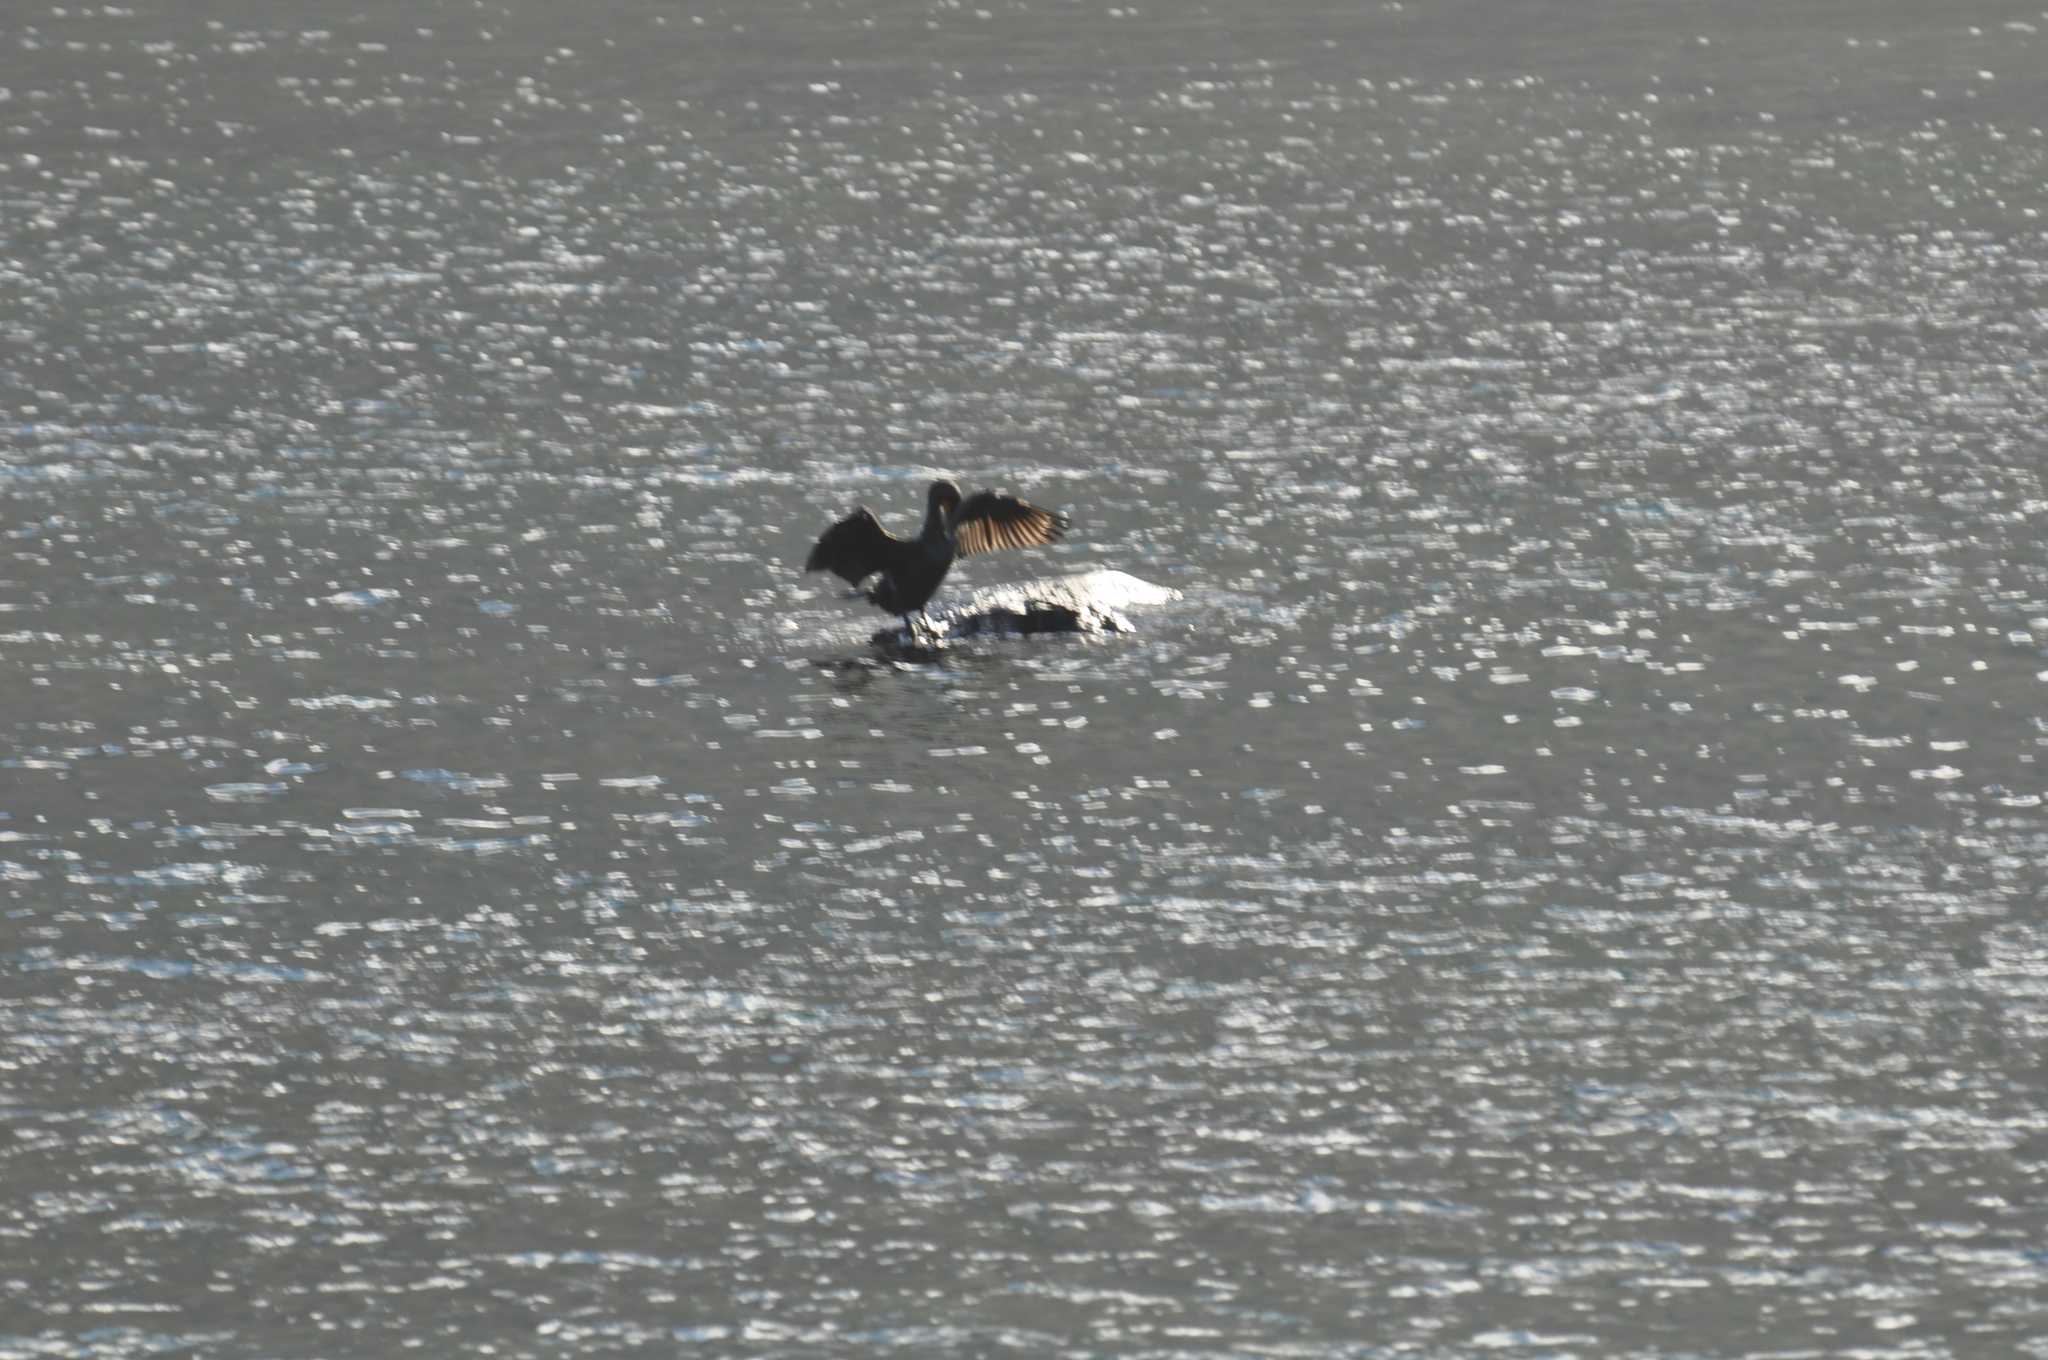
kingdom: Animalia
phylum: Chordata
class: Aves
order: Suliformes
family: Phalacrocoracidae
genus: Phalacrocorax
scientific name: Phalacrocorax carbo
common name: Great cormorant
